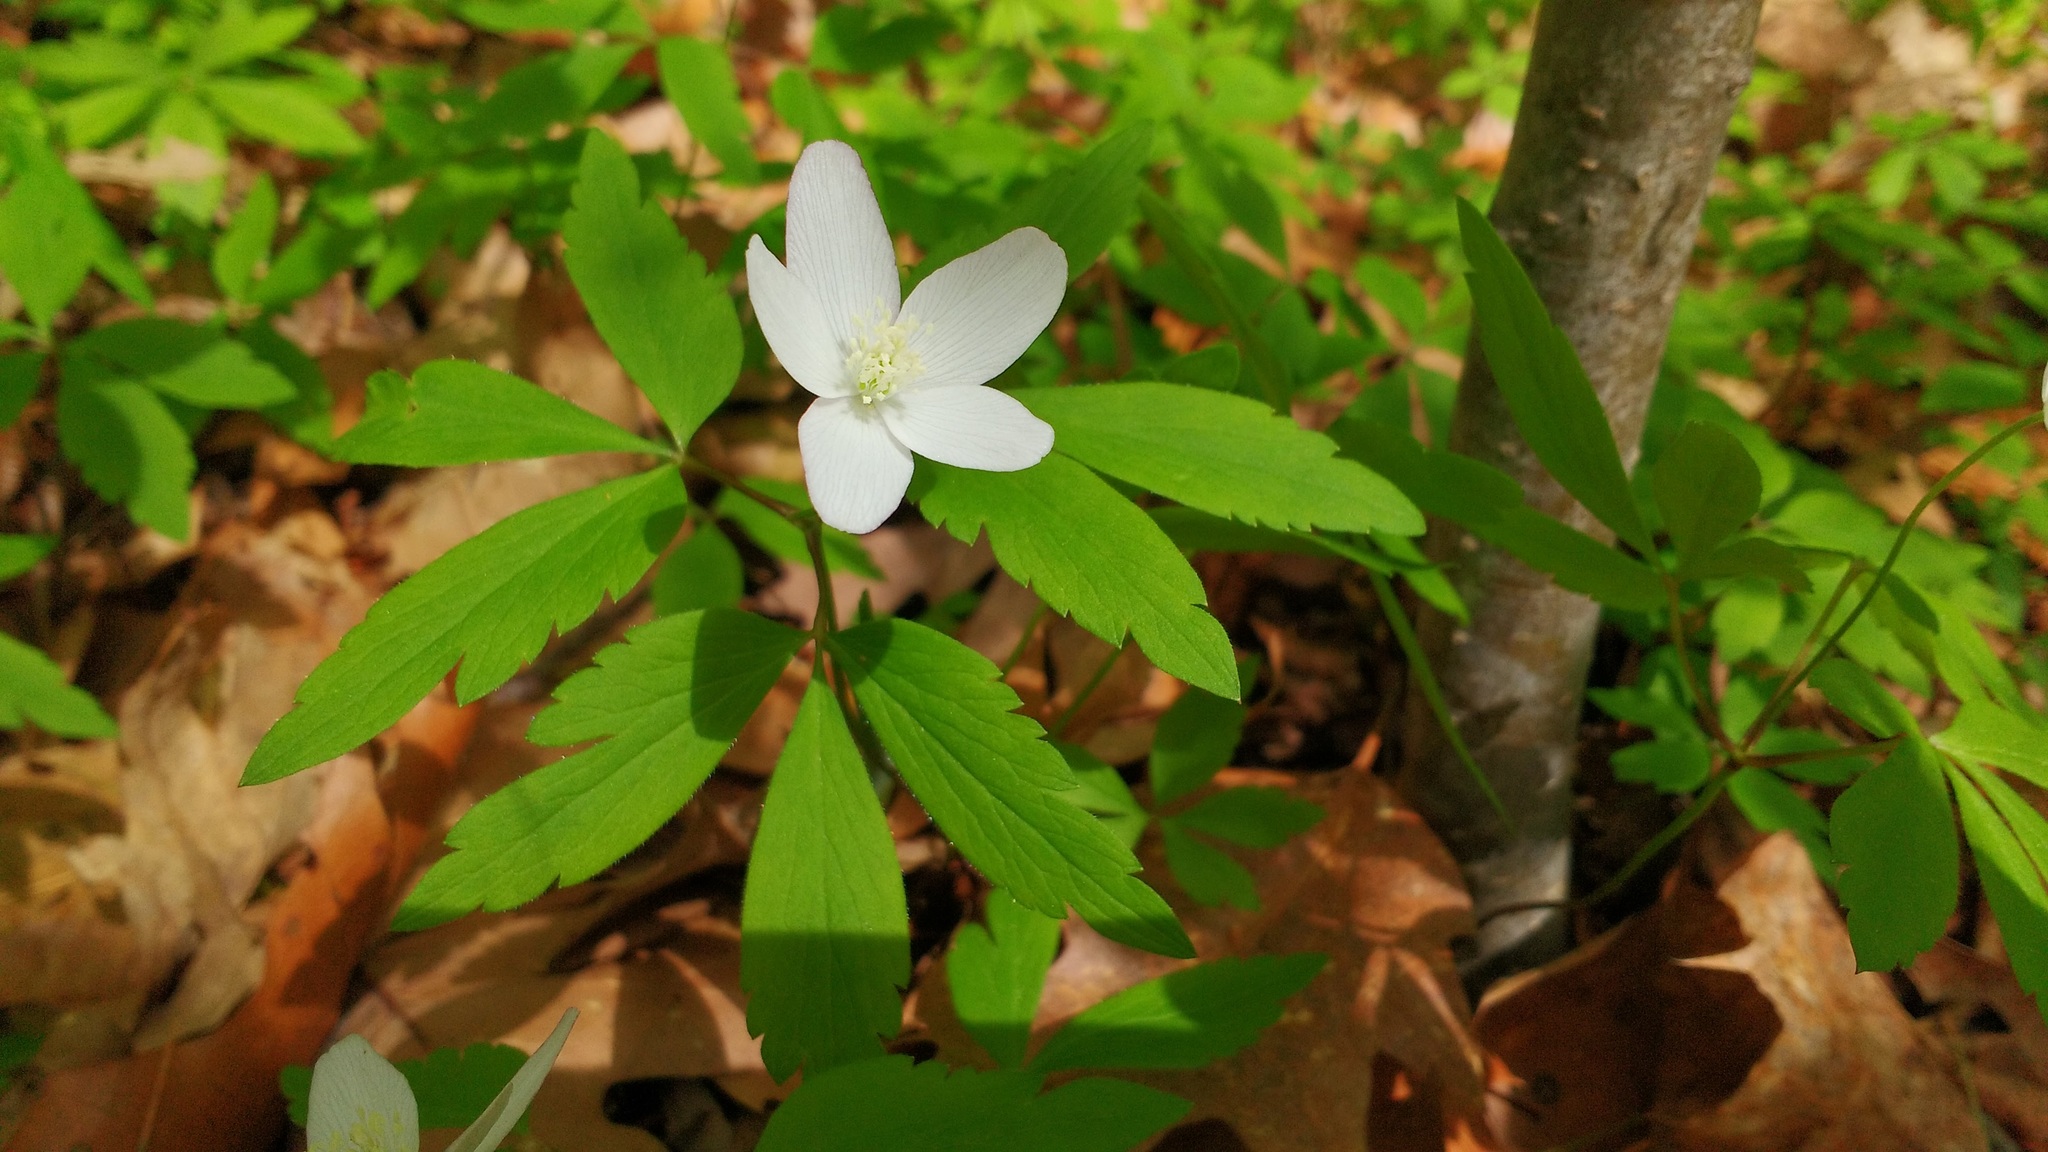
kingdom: Plantae
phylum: Tracheophyta
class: Magnoliopsida
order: Ranunculales
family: Ranunculaceae
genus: Anemone
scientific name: Anemone quinquefolia
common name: Wood anemone
